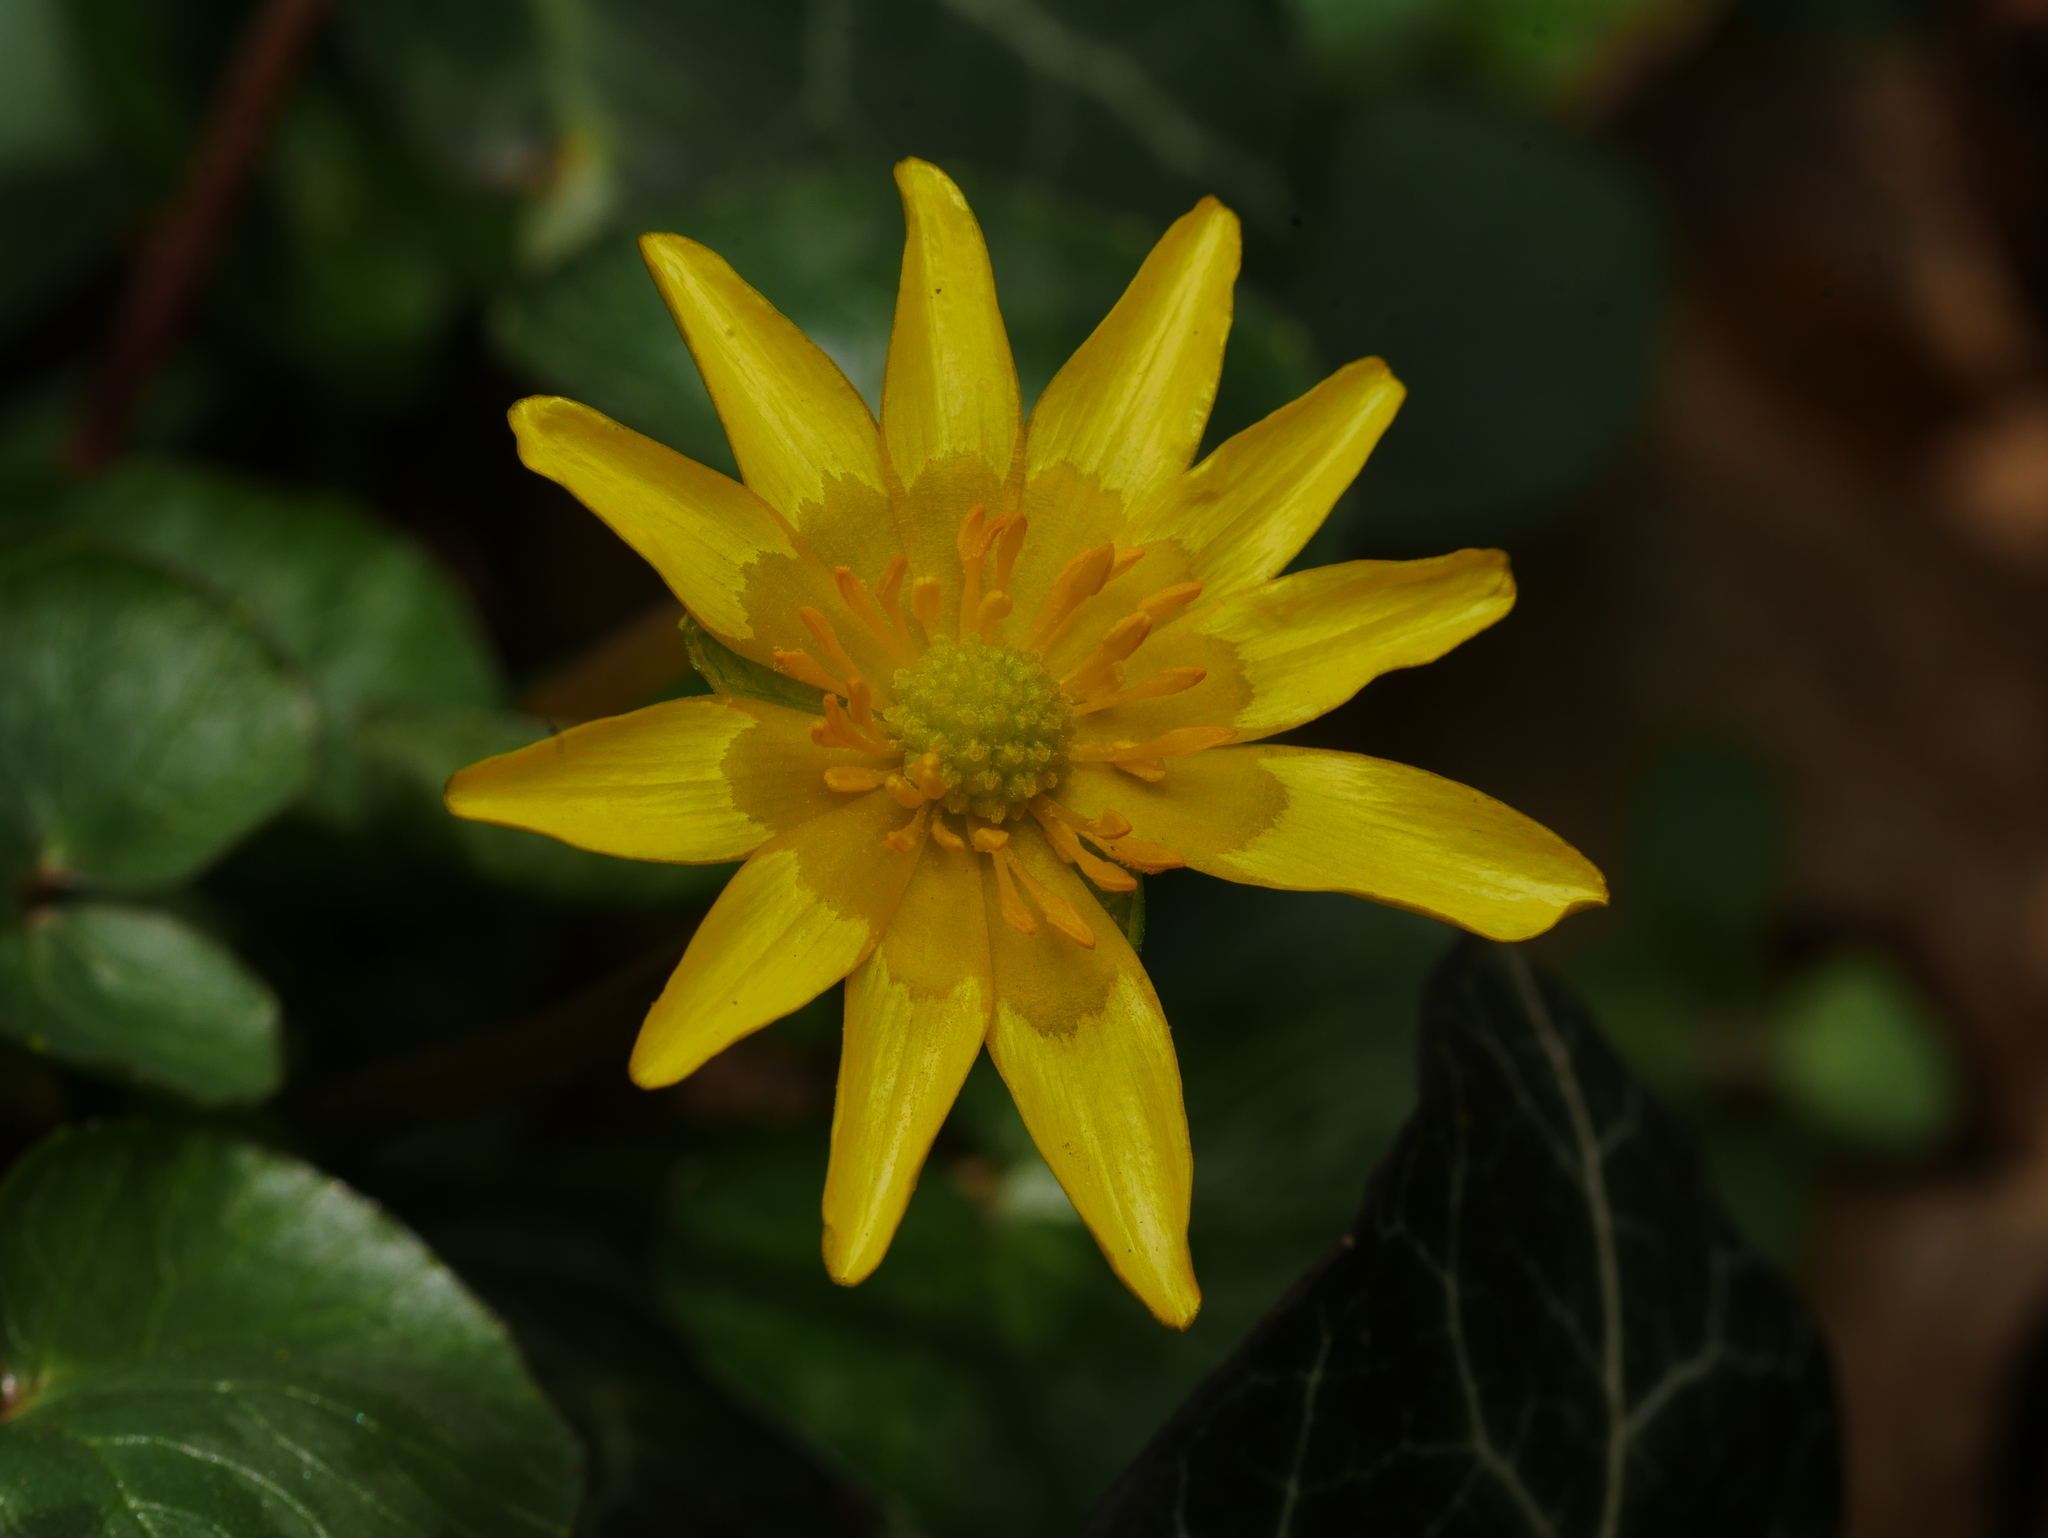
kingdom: Plantae
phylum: Tracheophyta
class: Magnoliopsida
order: Ranunculales
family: Ranunculaceae
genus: Ficaria
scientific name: Ficaria verna
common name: Lesser celandine
